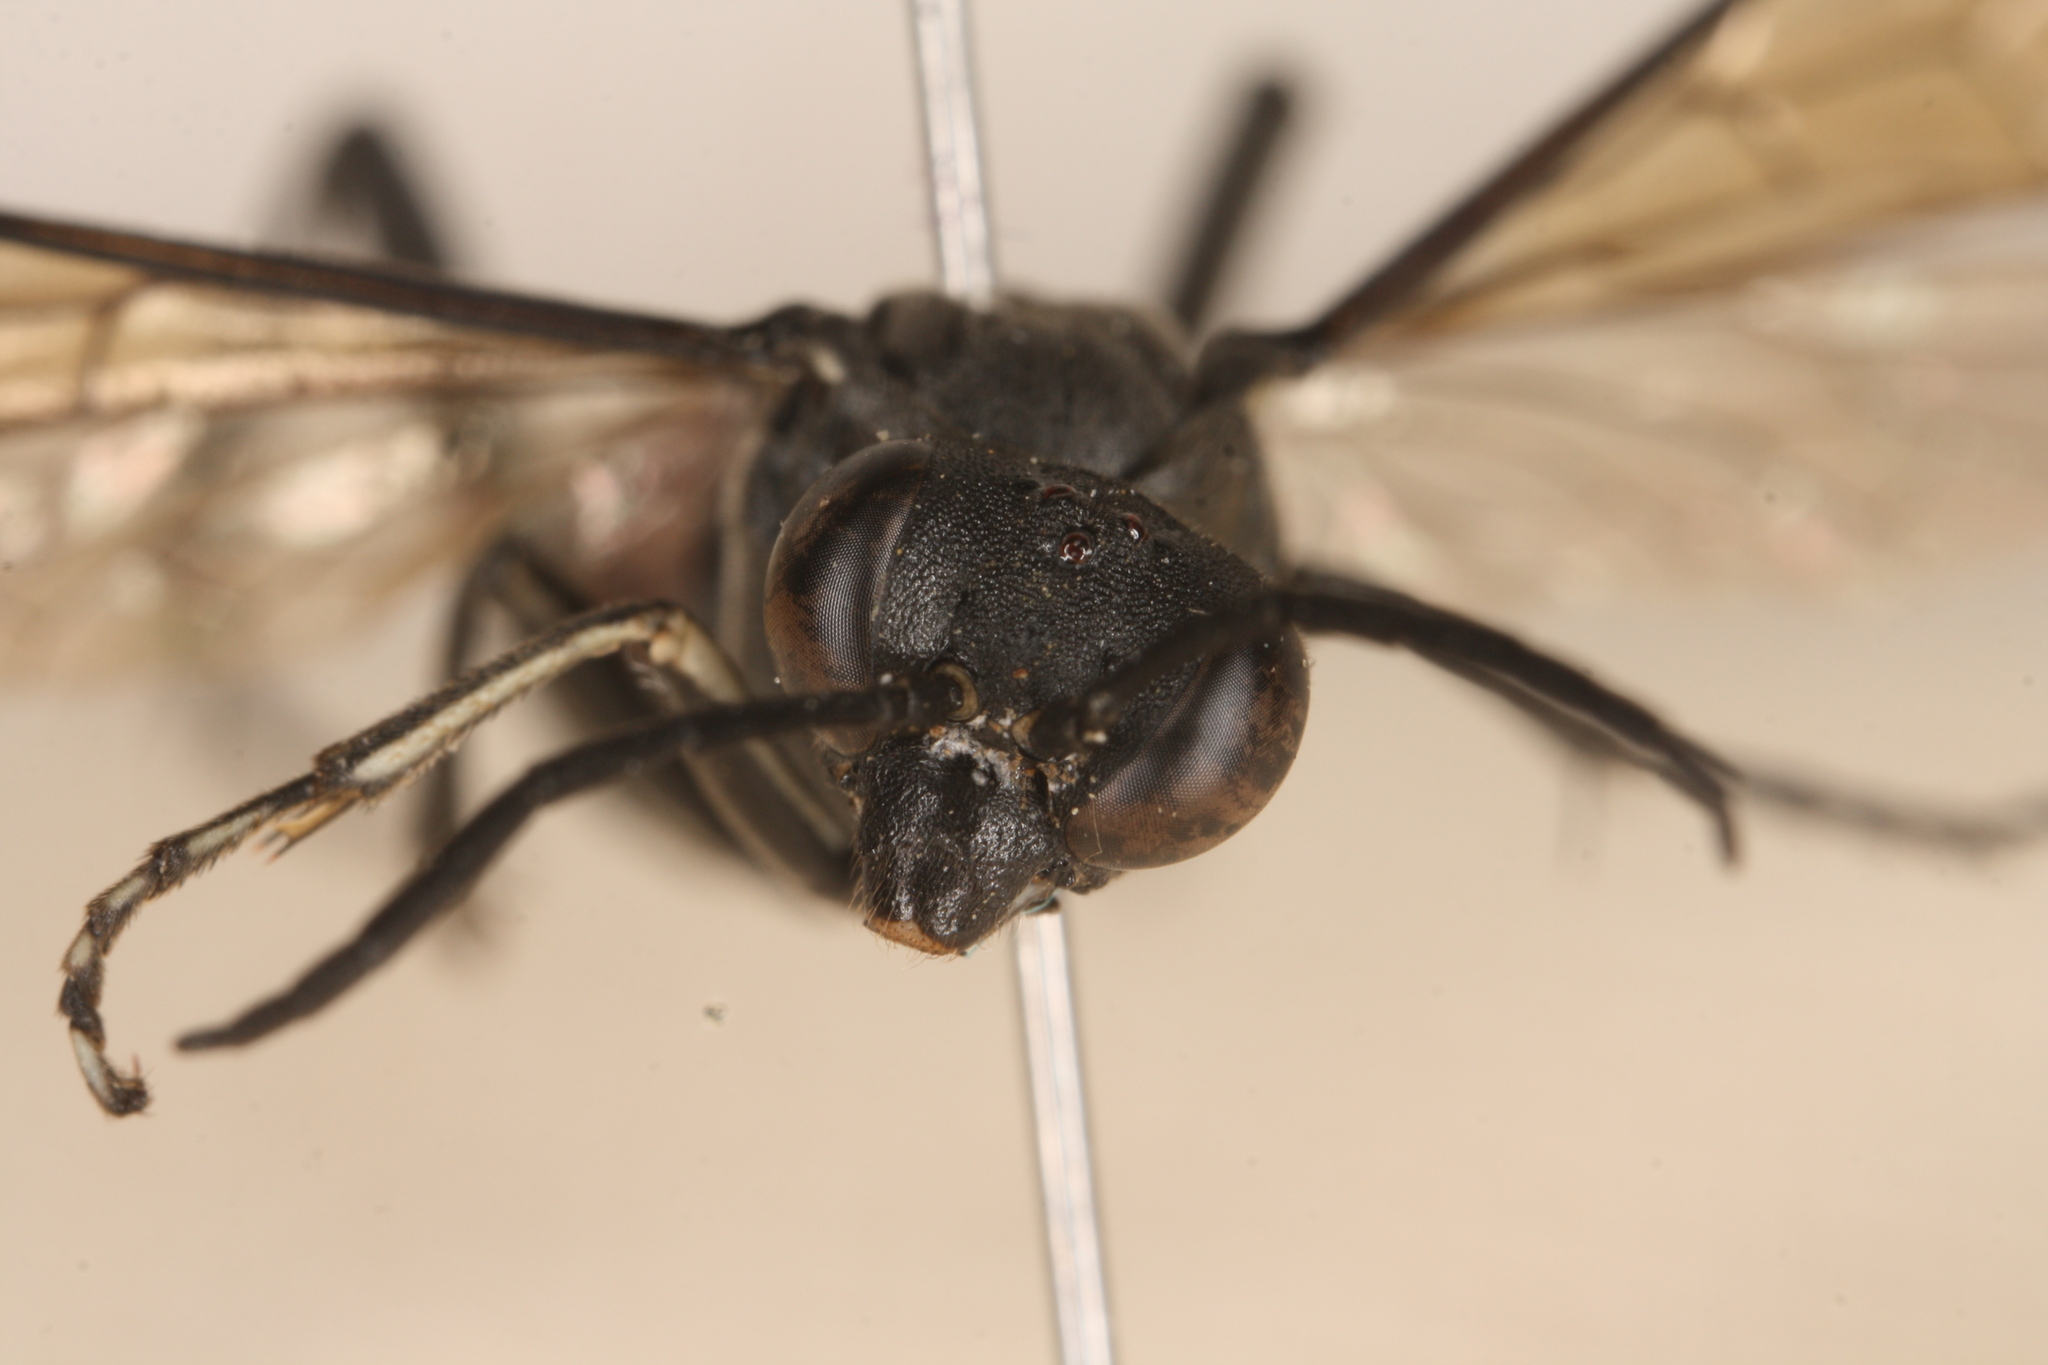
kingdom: Animalia
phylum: Arthropoda
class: Insecta
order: Hymenoptera
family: Tenthredinidae
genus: Macrophya
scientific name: Macrophya annulata
